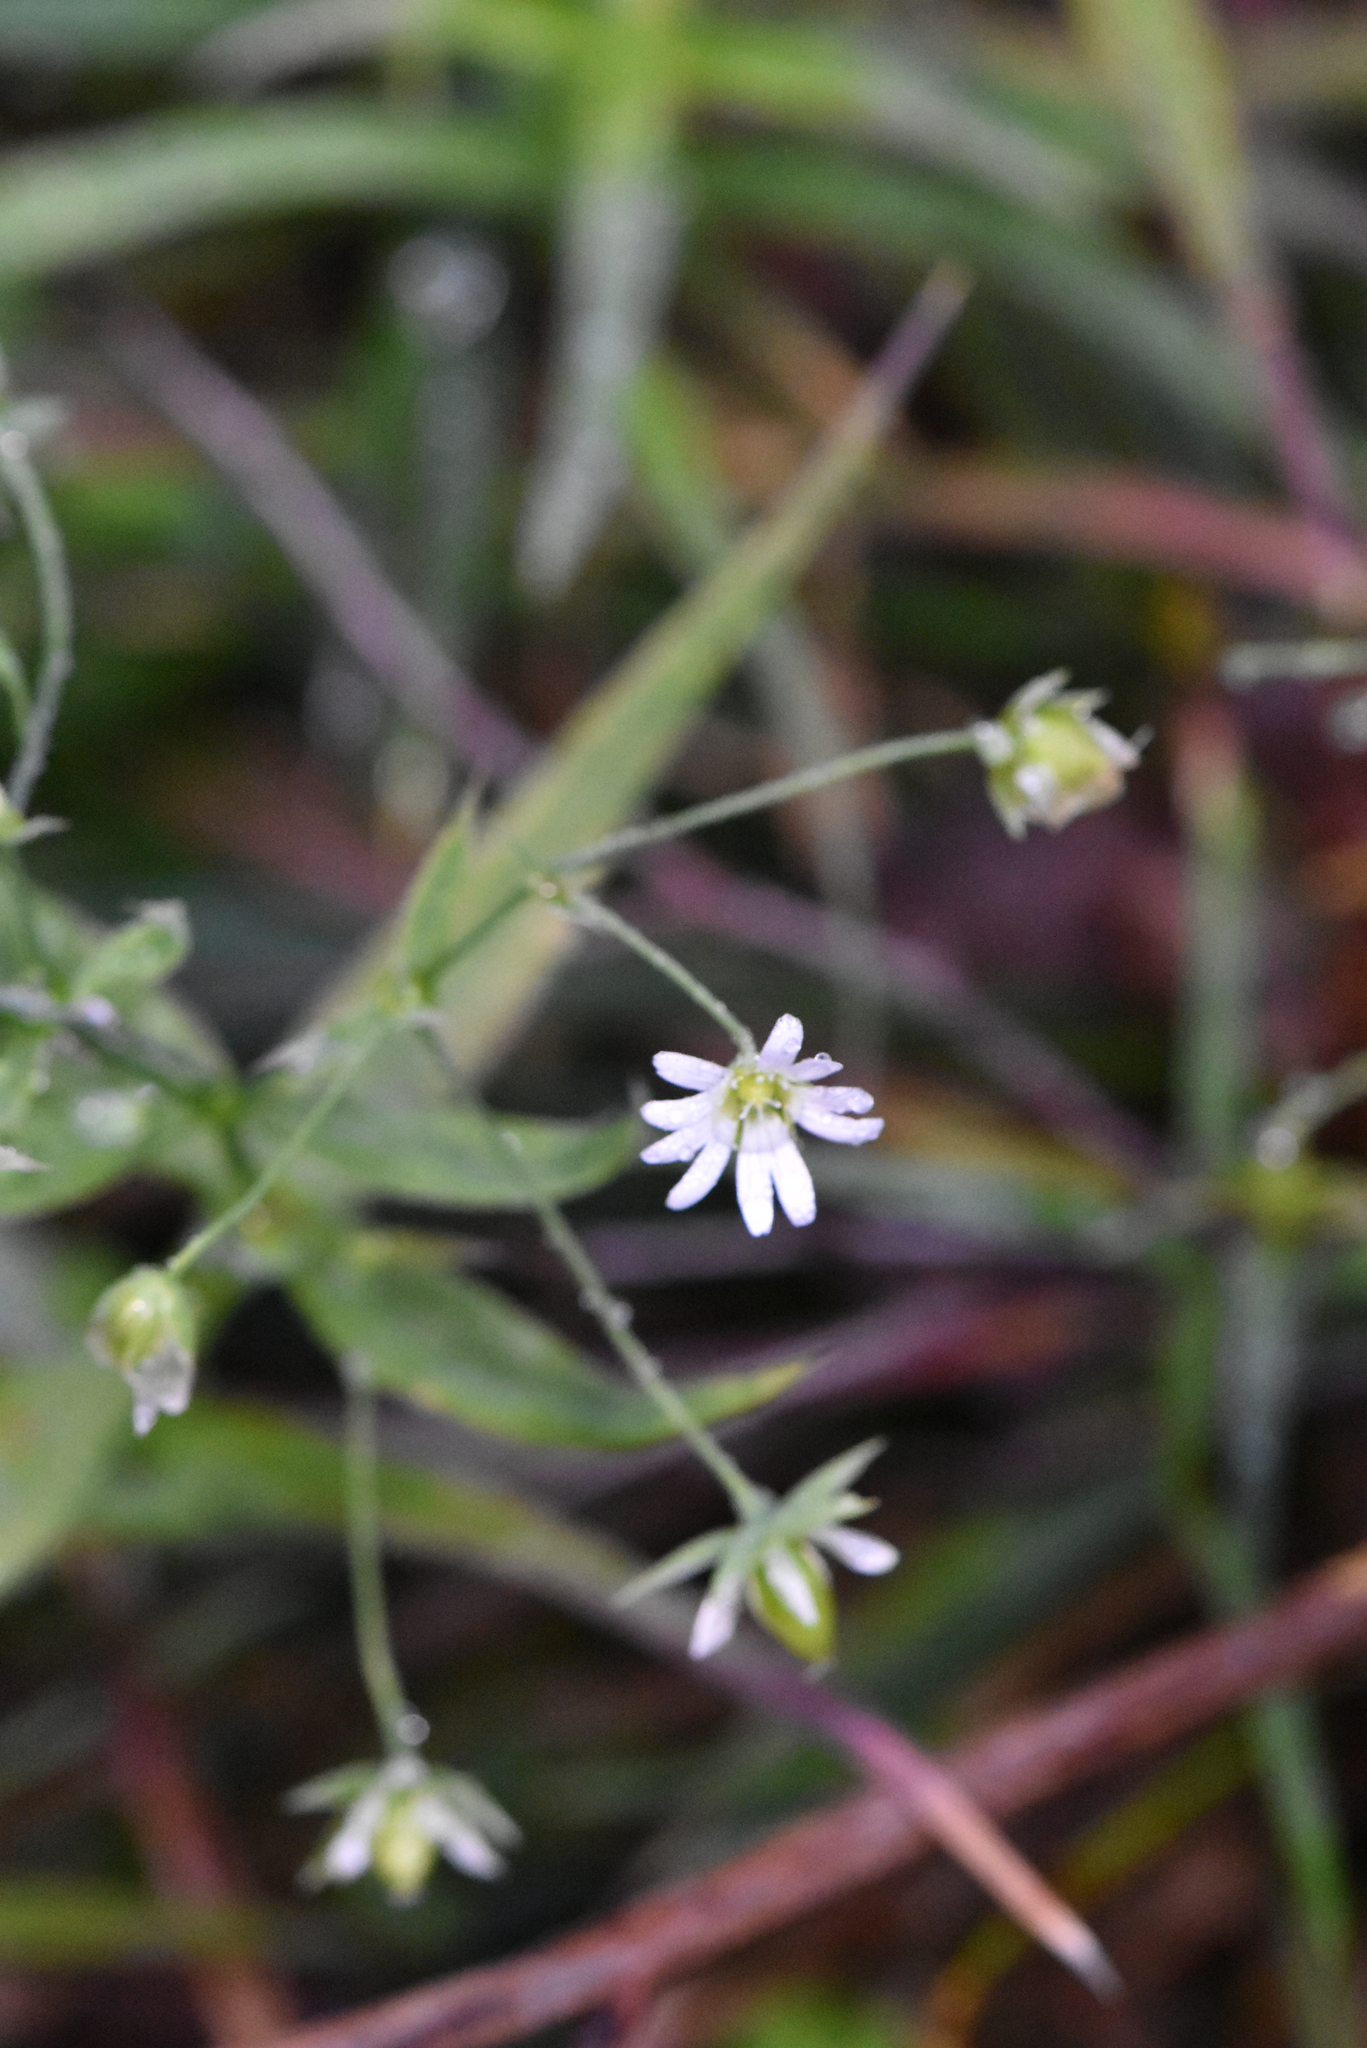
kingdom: Plantae
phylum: Tracheophyta
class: Magnoliopsida
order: Caryophyllales
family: Caryophyllaceae
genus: Stellaria
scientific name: Stellaria nemorum
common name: Wood stitchwort
